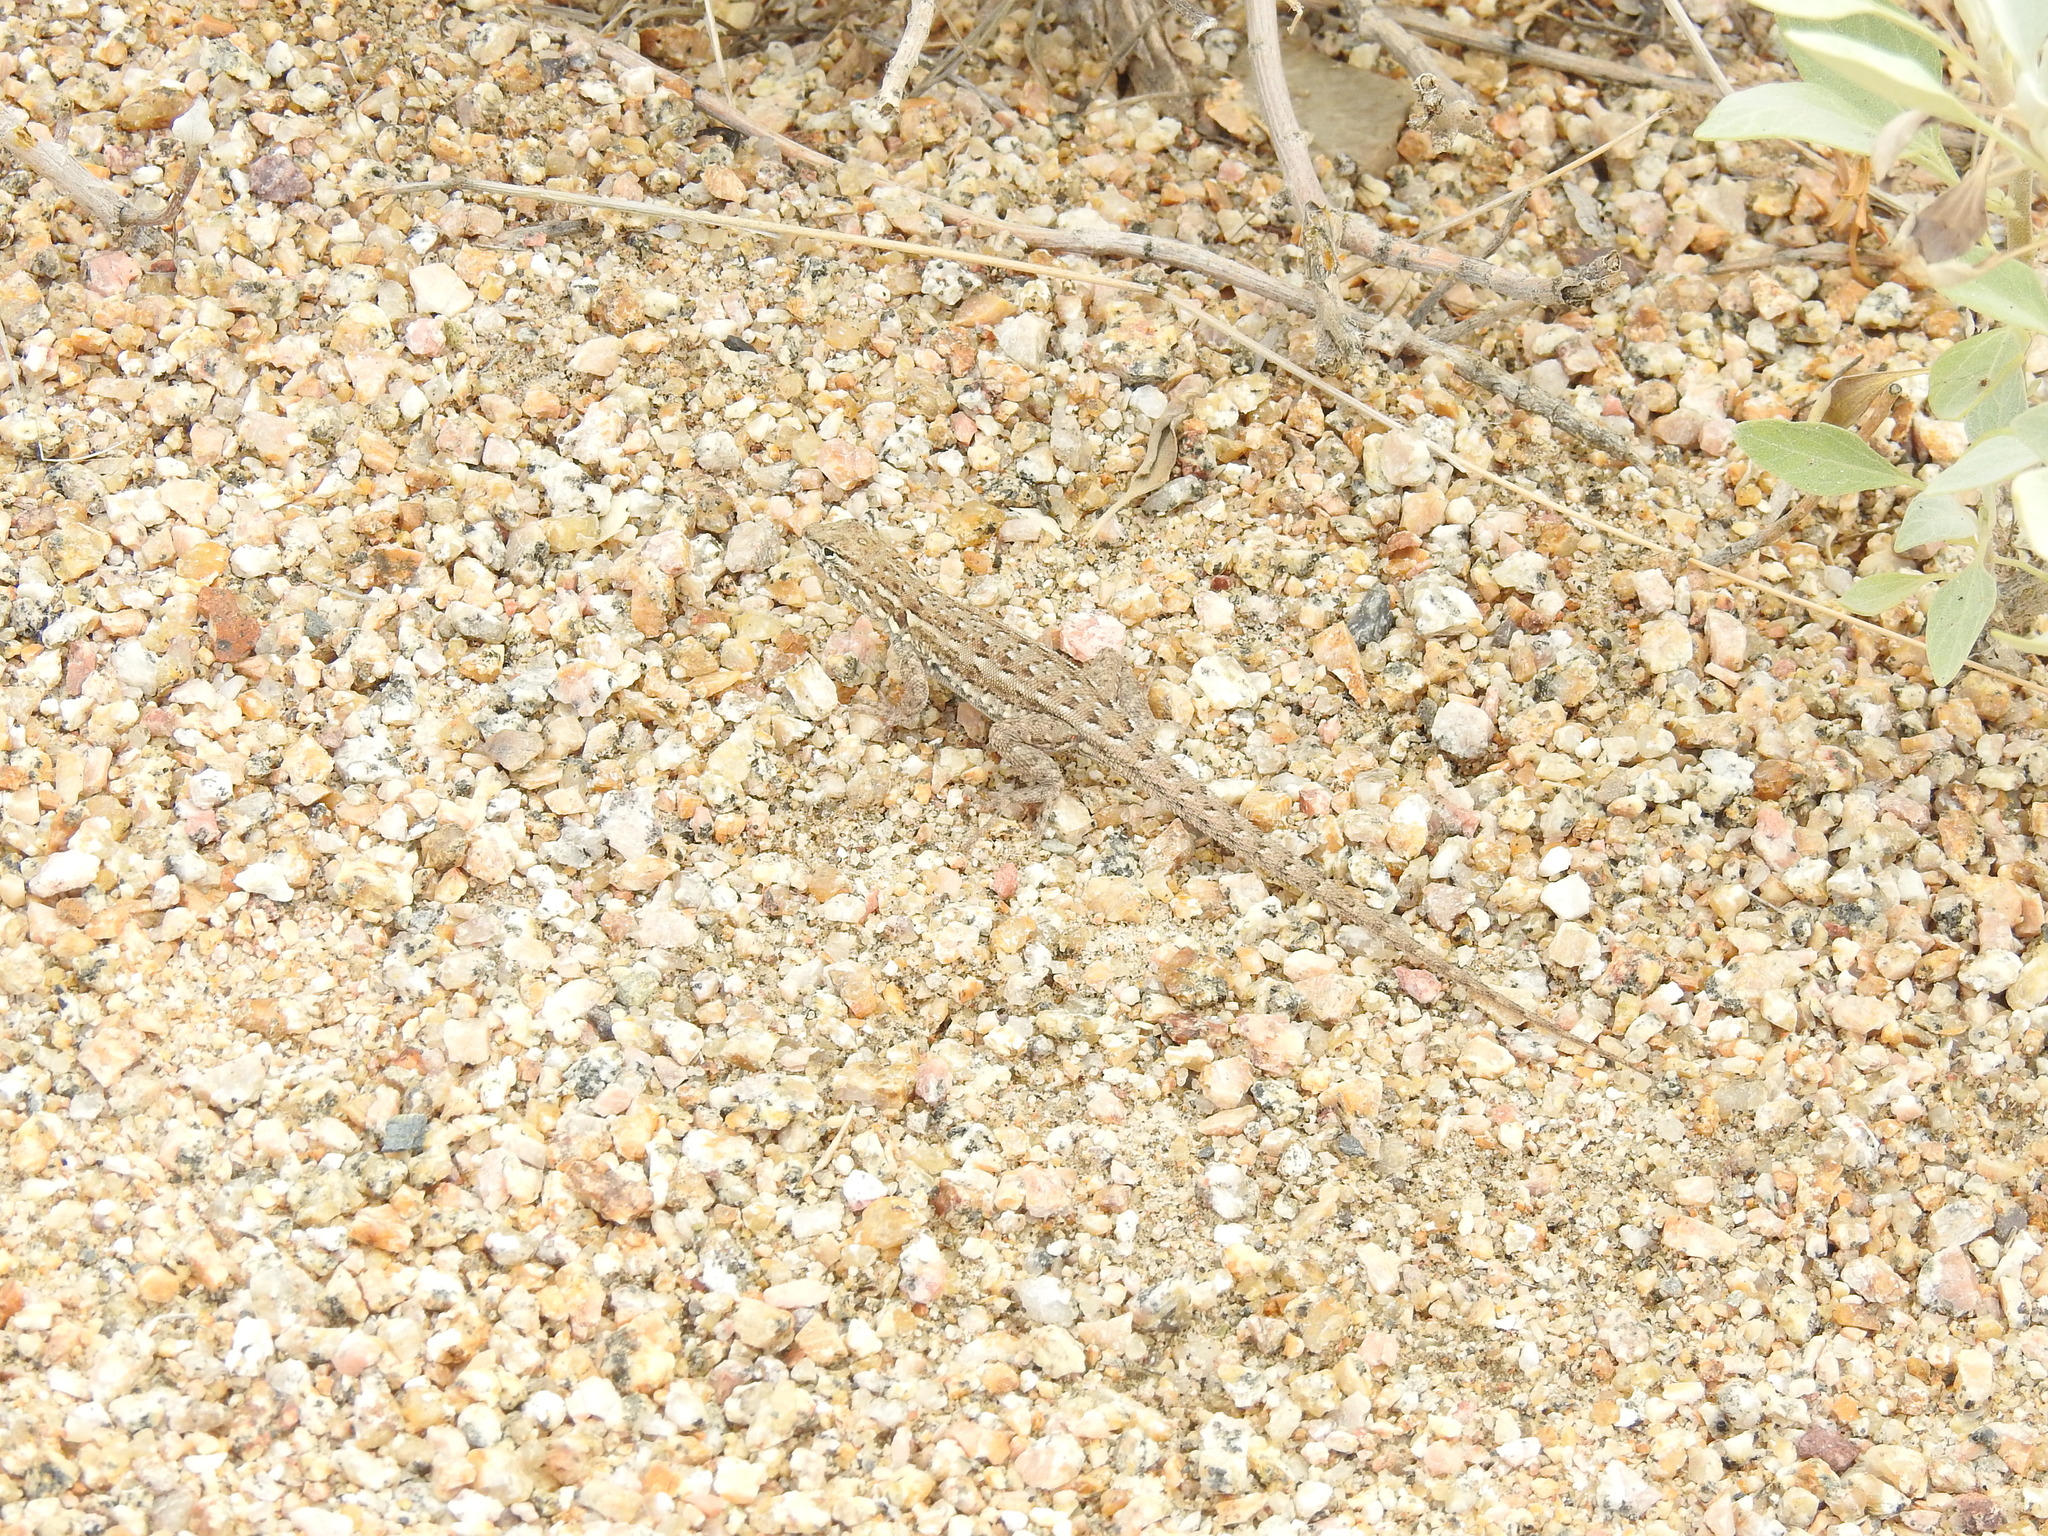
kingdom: Animalia
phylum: Chordata
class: Squamata
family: Phrynosomatidae
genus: Uta
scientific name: Uta stansburiana
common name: Side-blotched lizard
